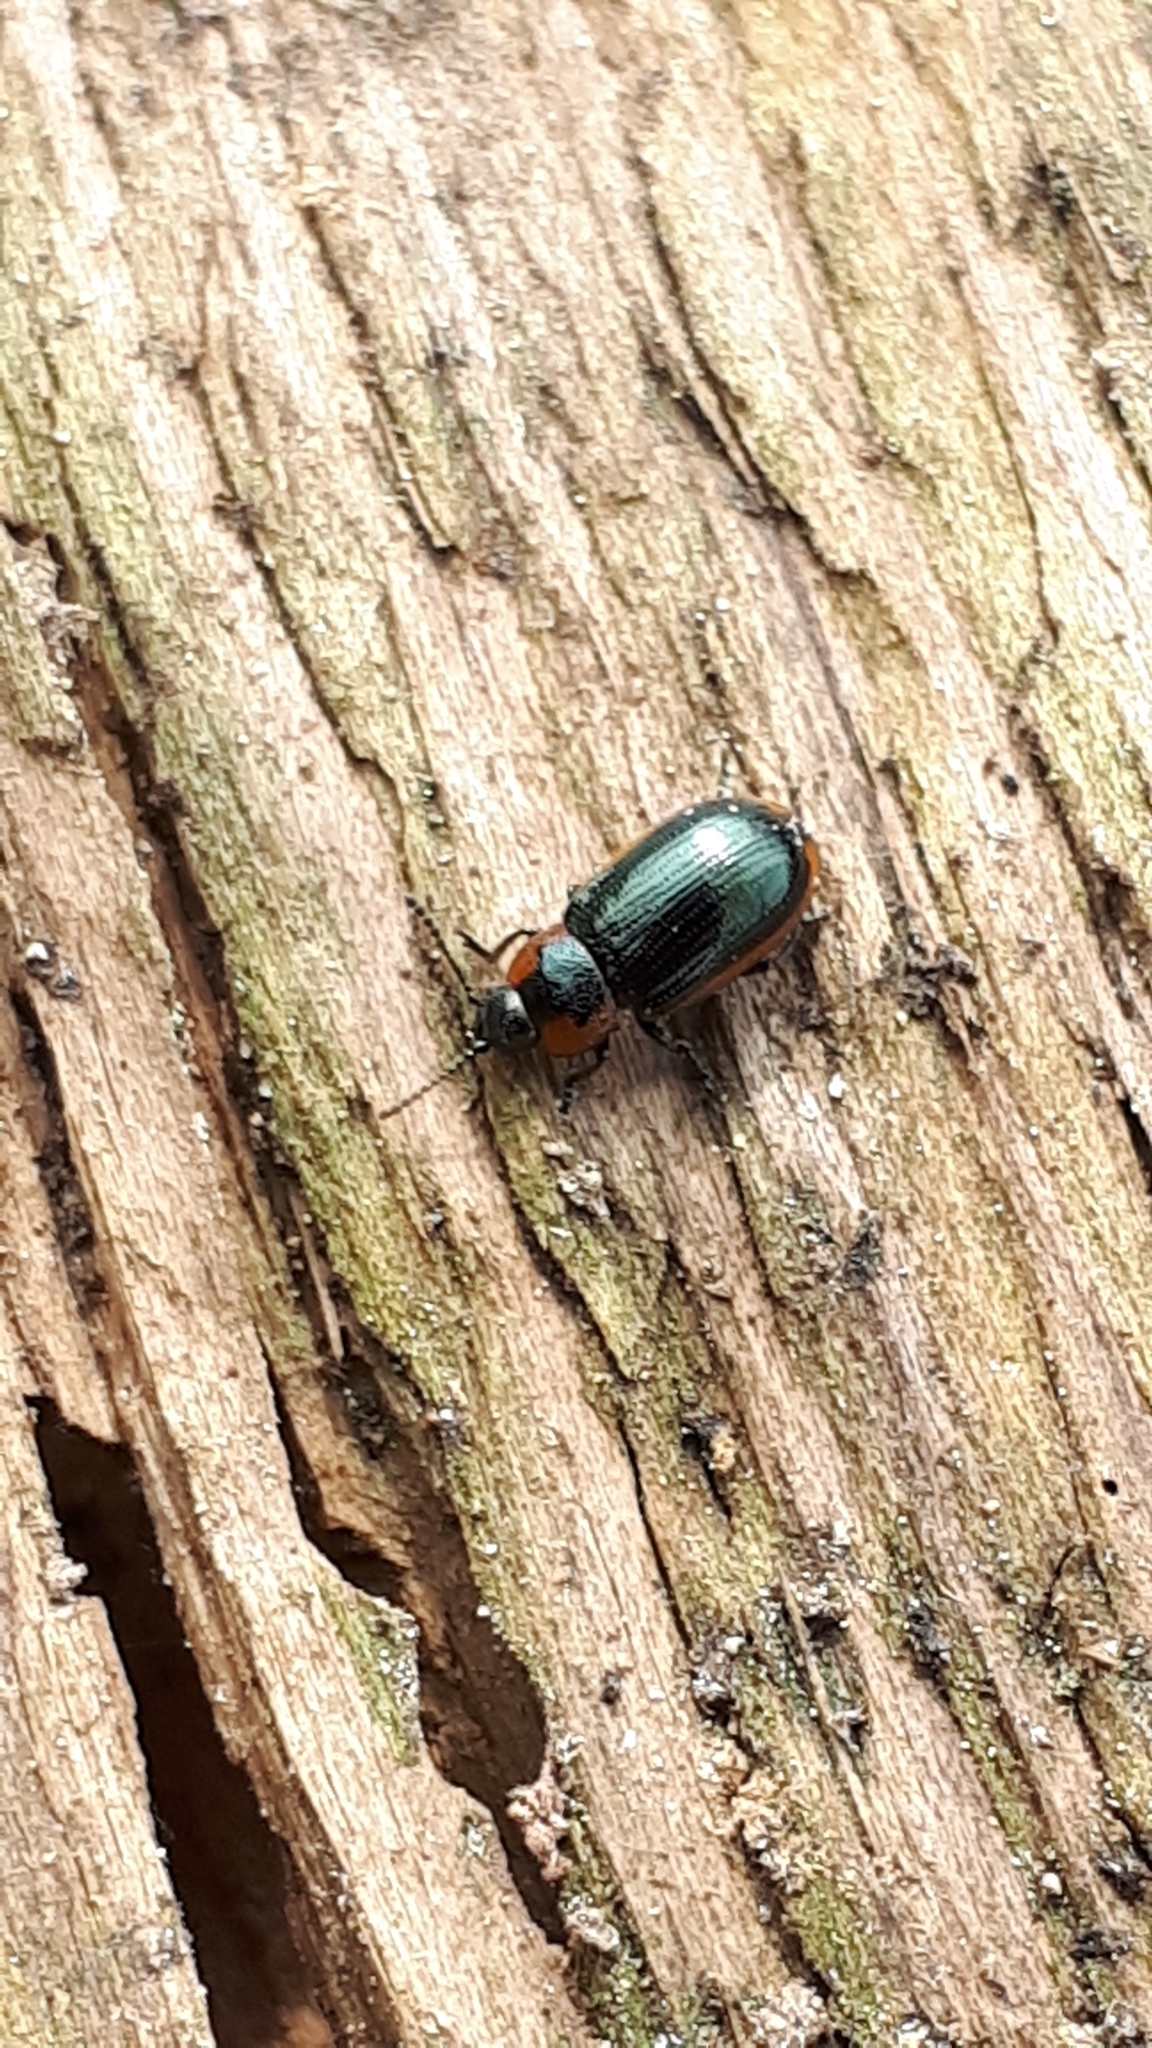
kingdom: Animalia
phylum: Arthropoda
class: Insecta
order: Coleoptera
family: Chrysomelidae
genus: Prasocuris
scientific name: Prasocuris marginella
